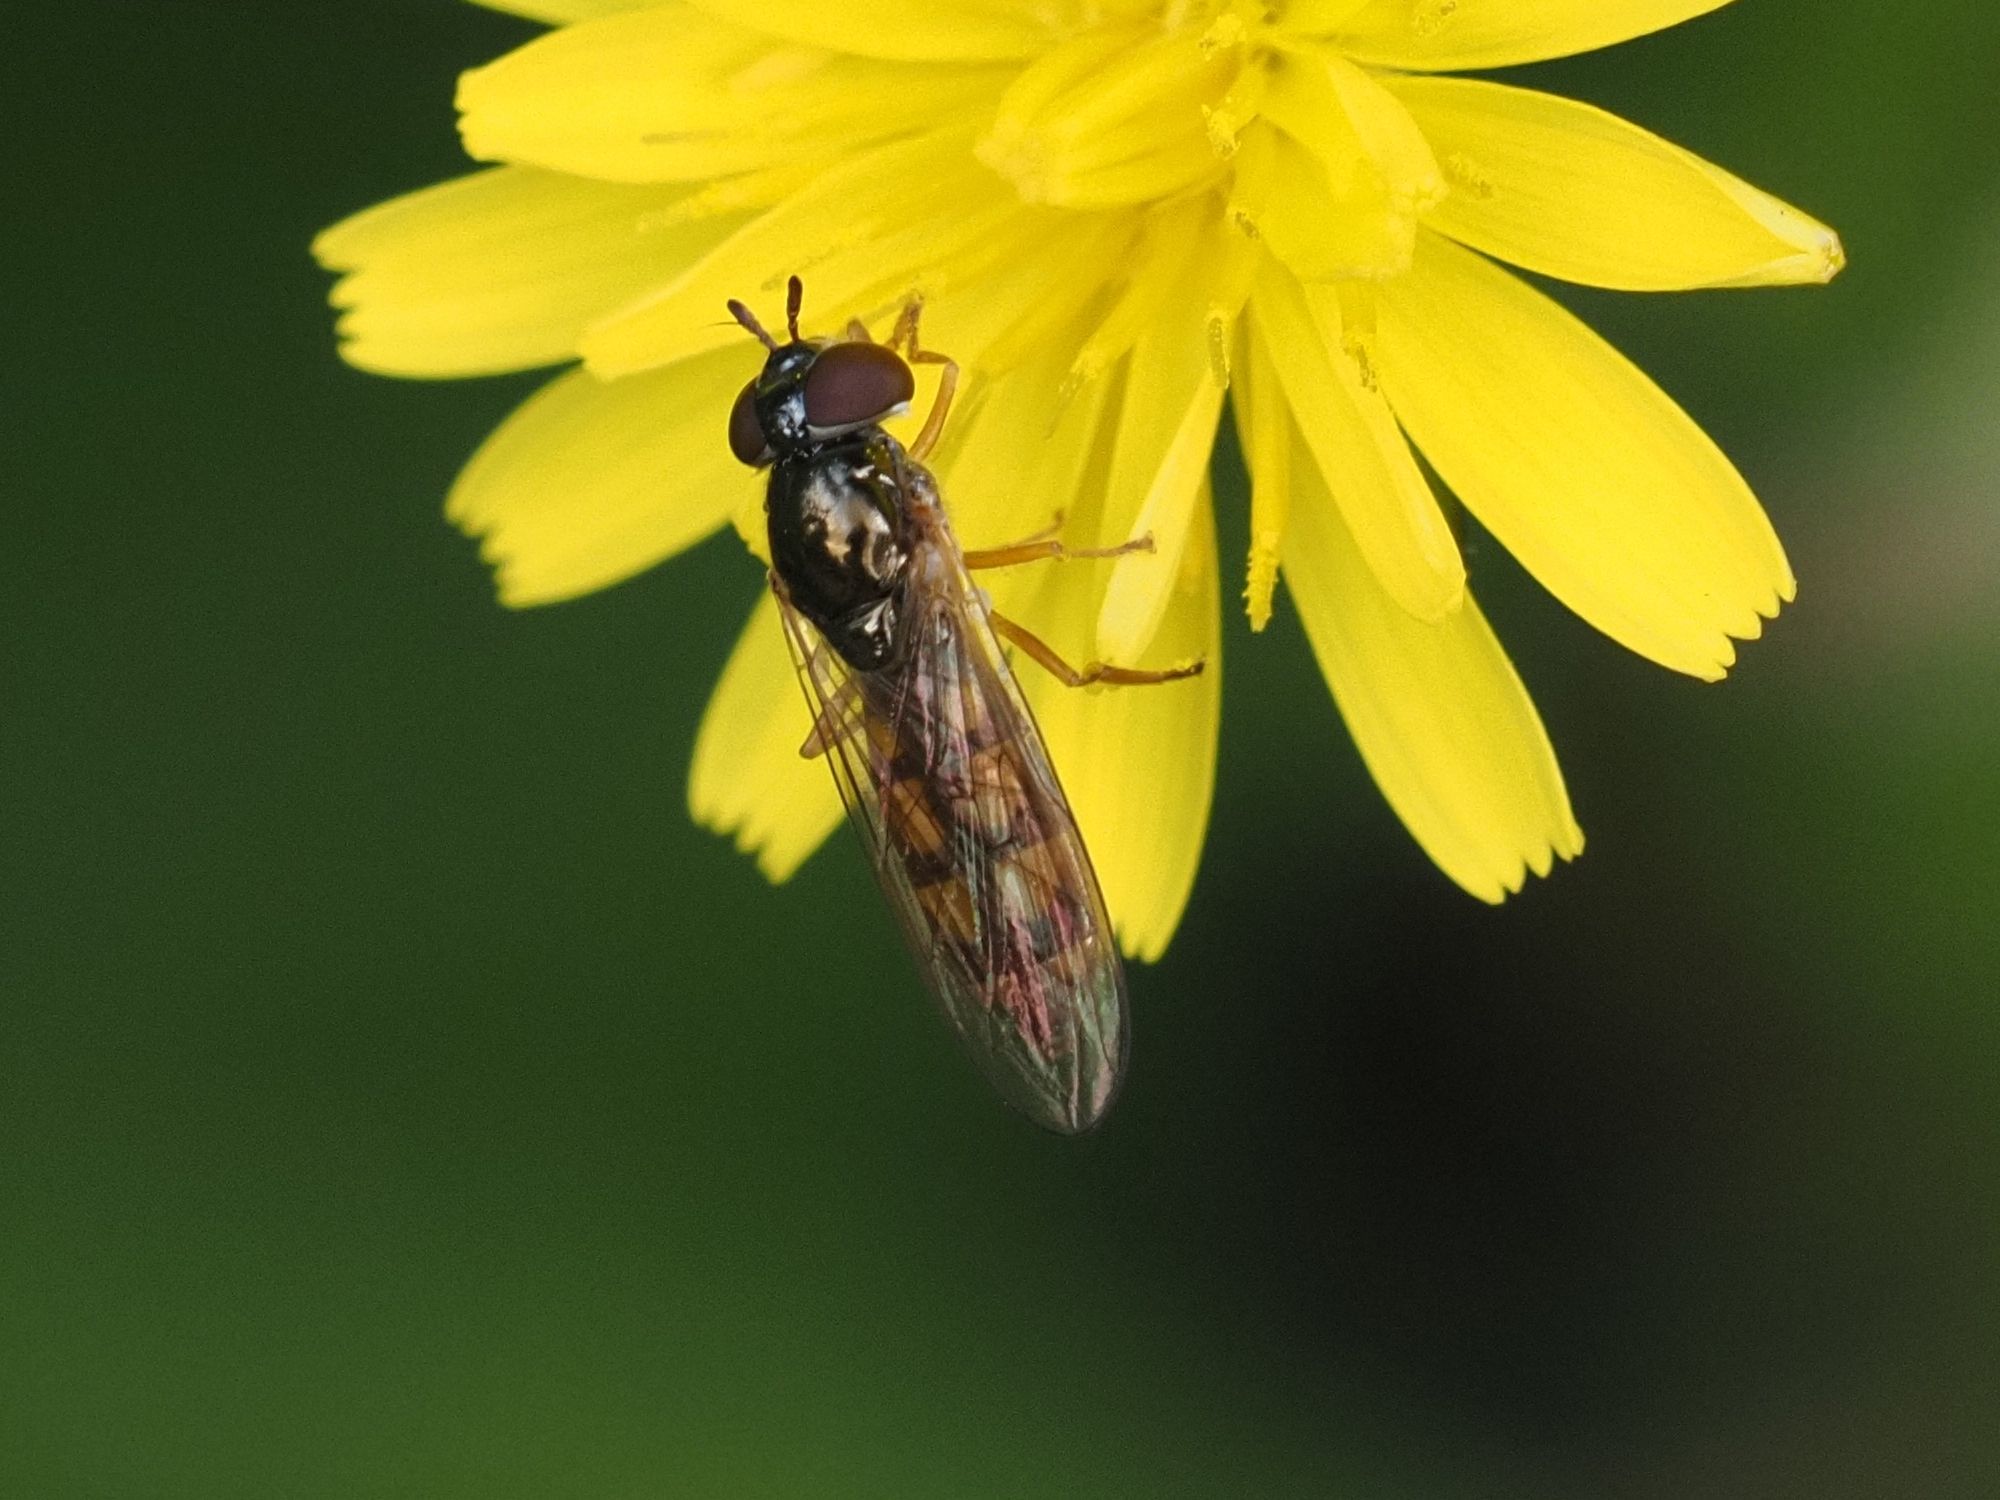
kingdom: Animalia
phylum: Arthropoda
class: Insecta
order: Diptera
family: Syrphidae
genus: Melanostoma
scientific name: Melanostoma mellina
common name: Hover fly
